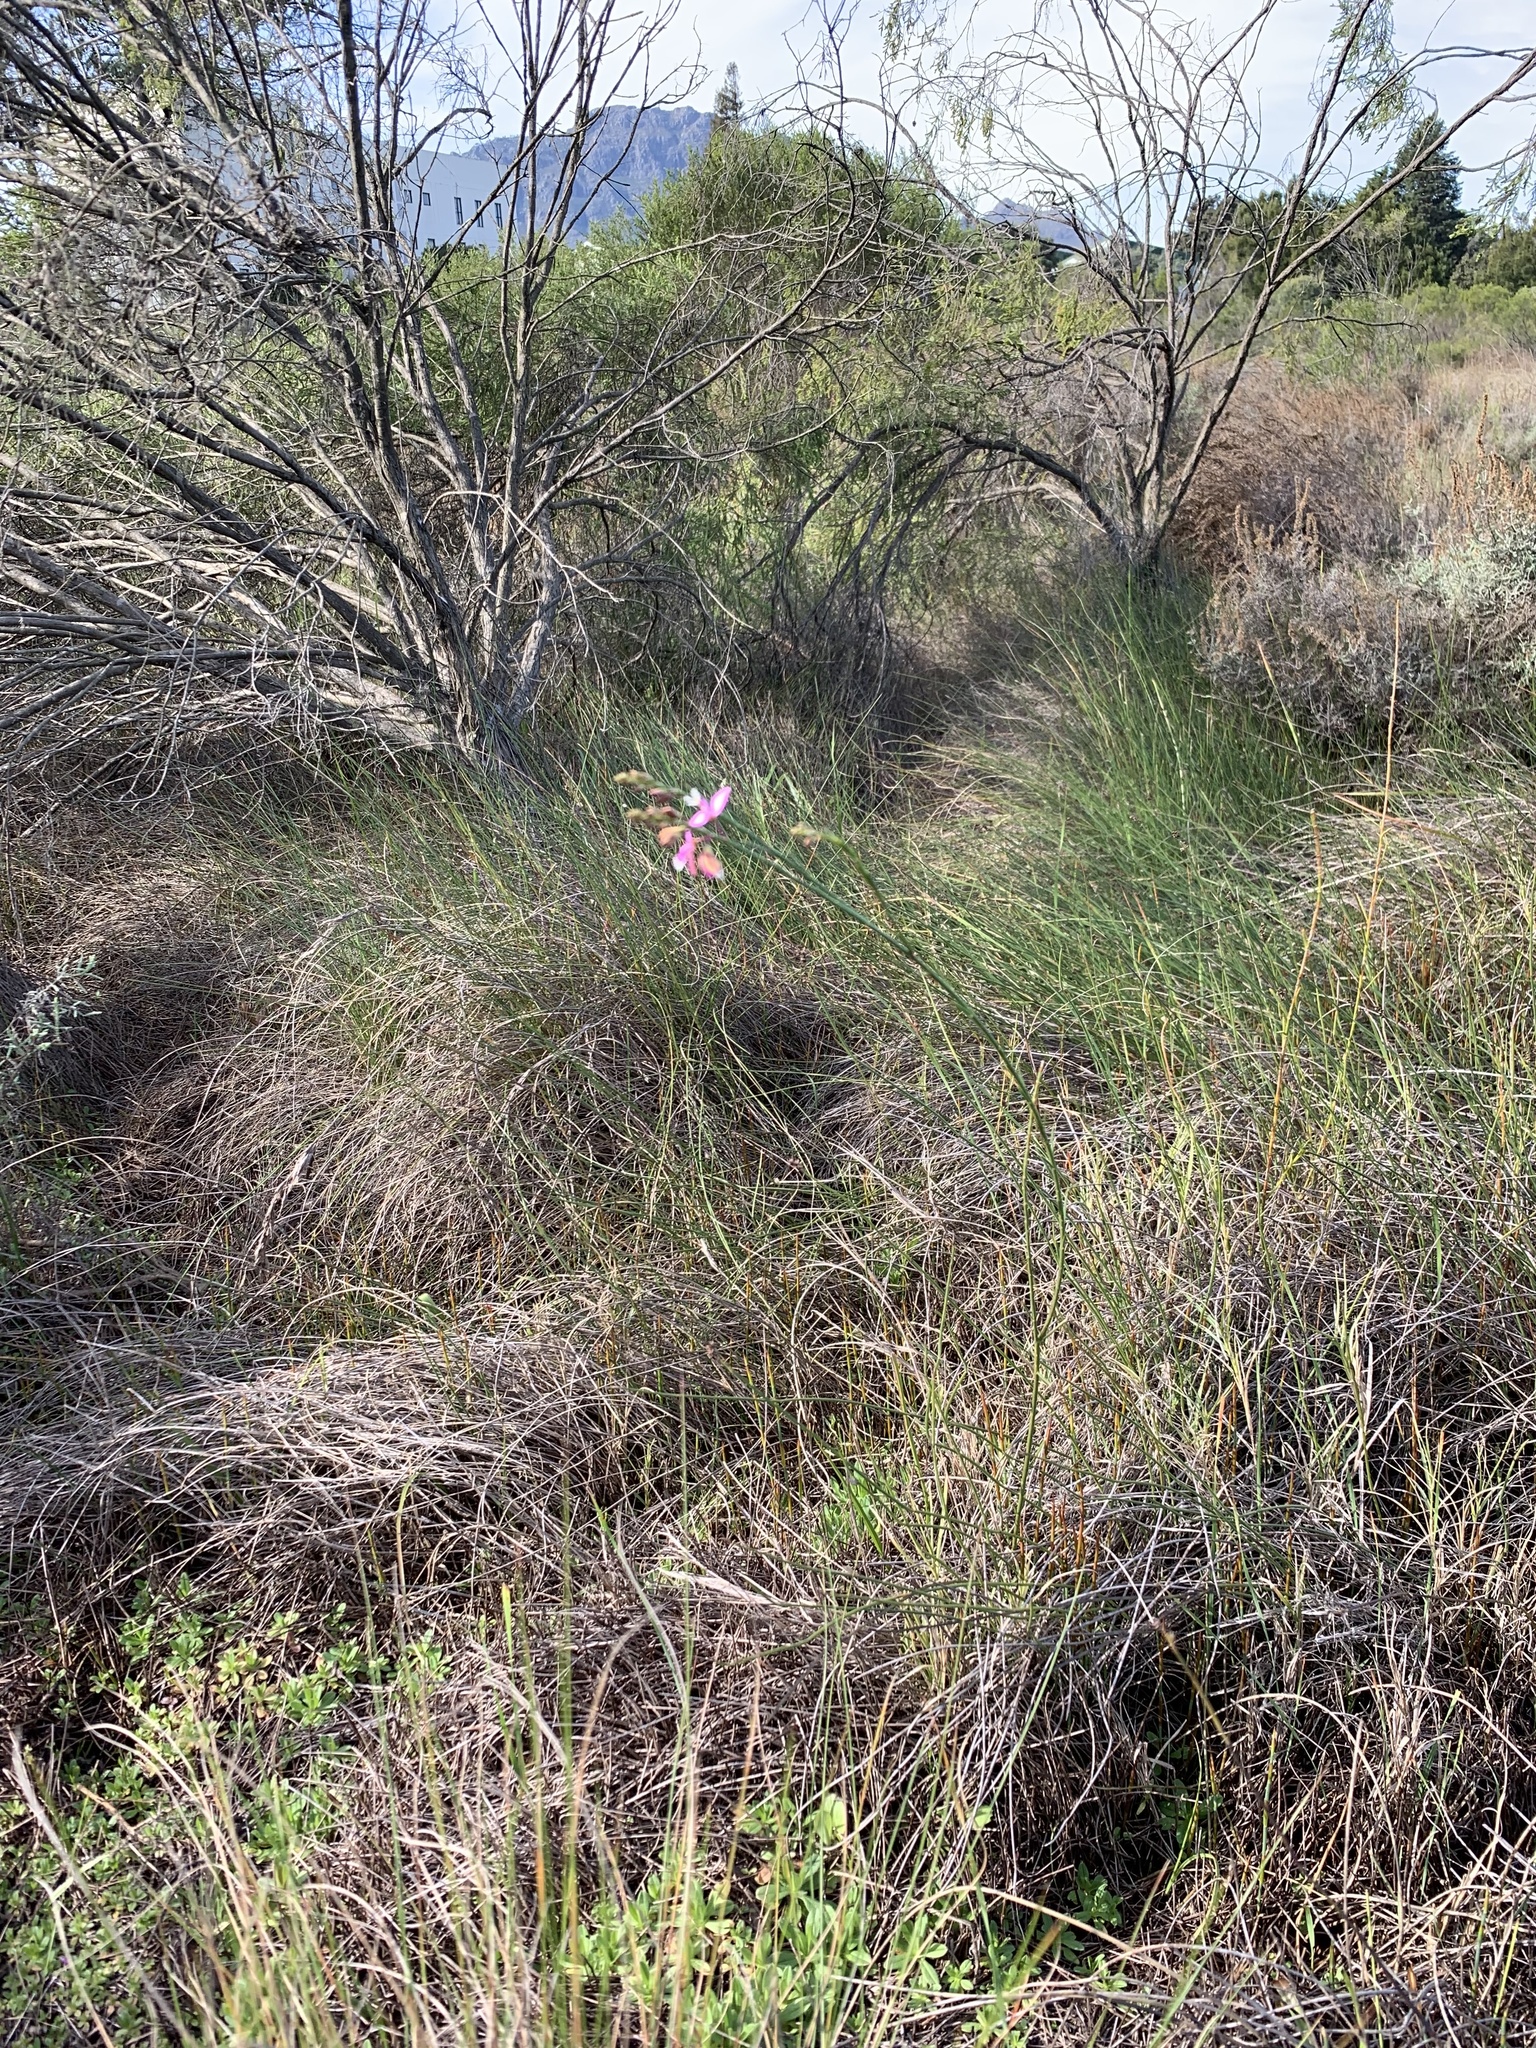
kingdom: Plantae
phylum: Tracheophyta
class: Magnoliopsida
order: Fabales
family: Polygalaceae
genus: Polygala
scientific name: Polygala garcini
